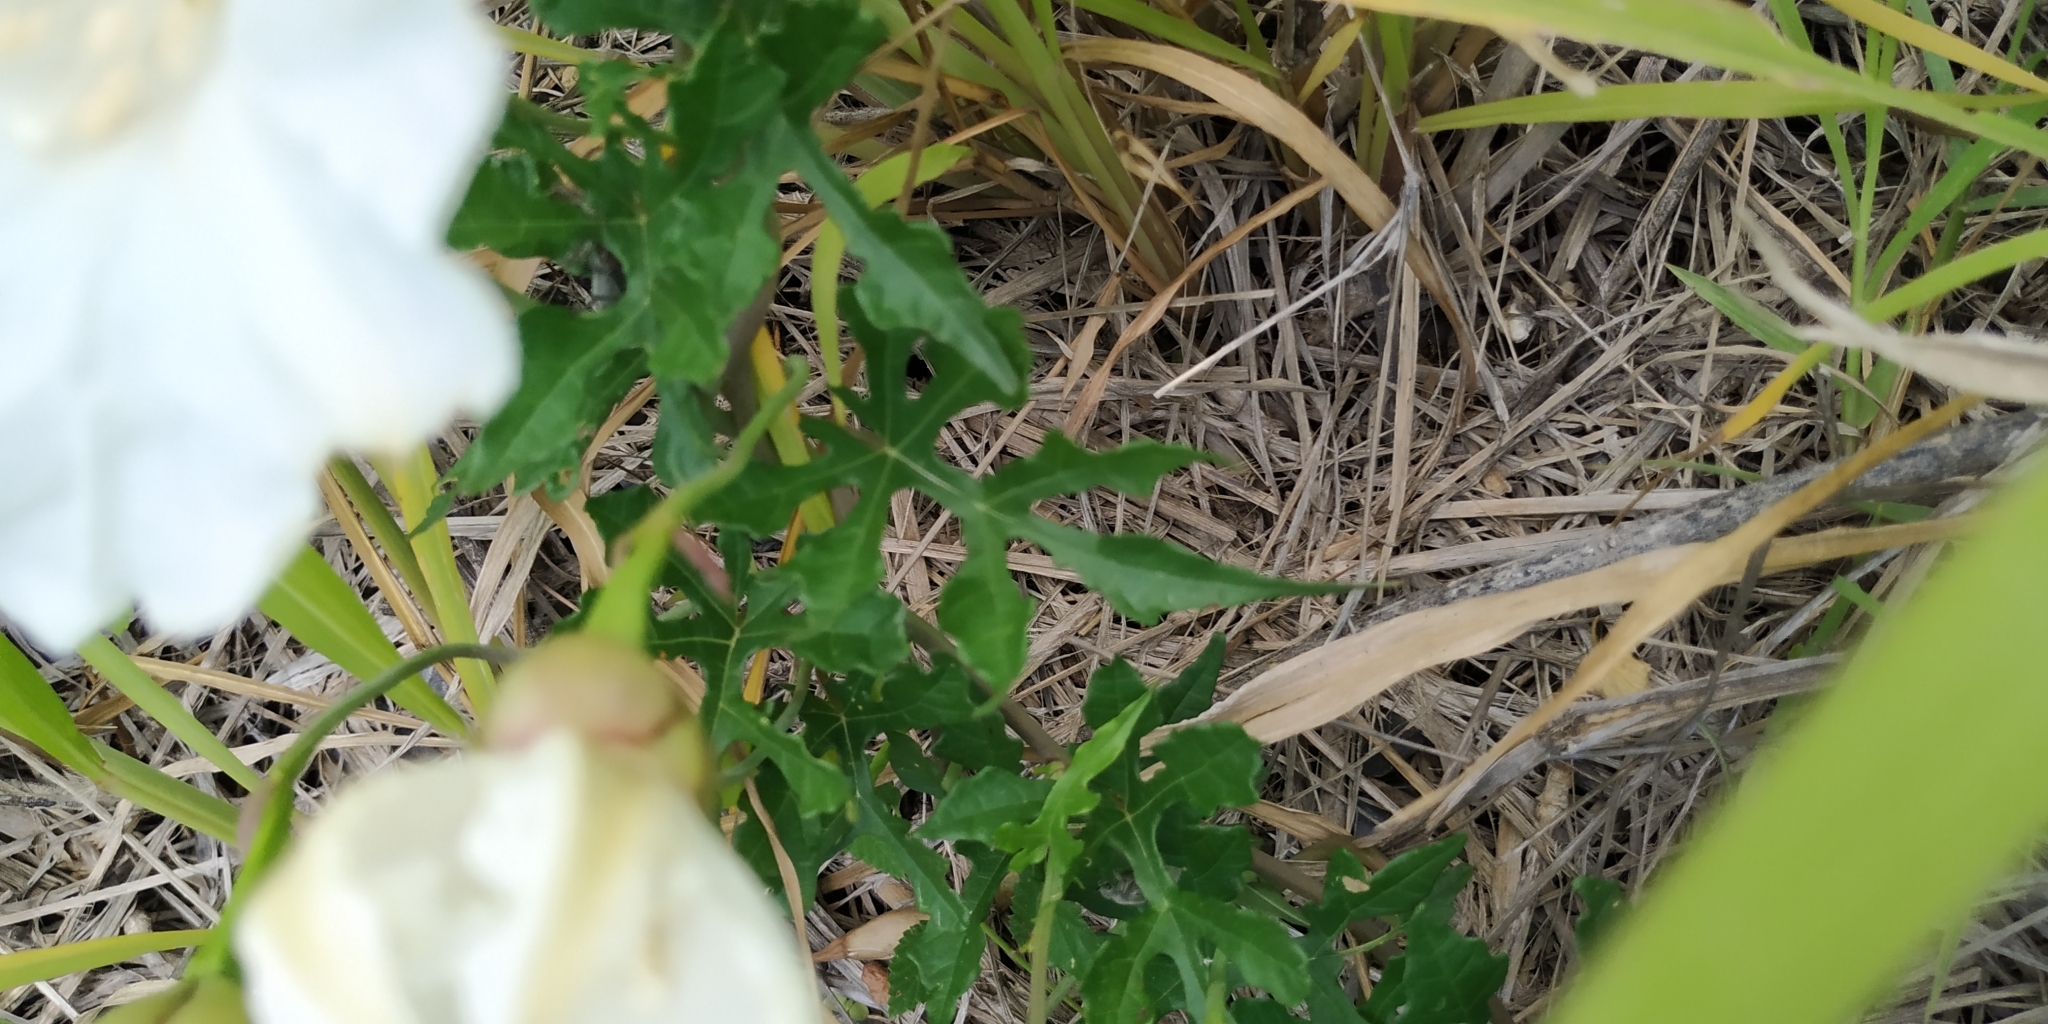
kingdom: Plantae
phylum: Tracheophyta
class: Magnoliopsida
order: Solanales
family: Convolvulaceae
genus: Operculina
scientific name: Operculina pinnatifida
